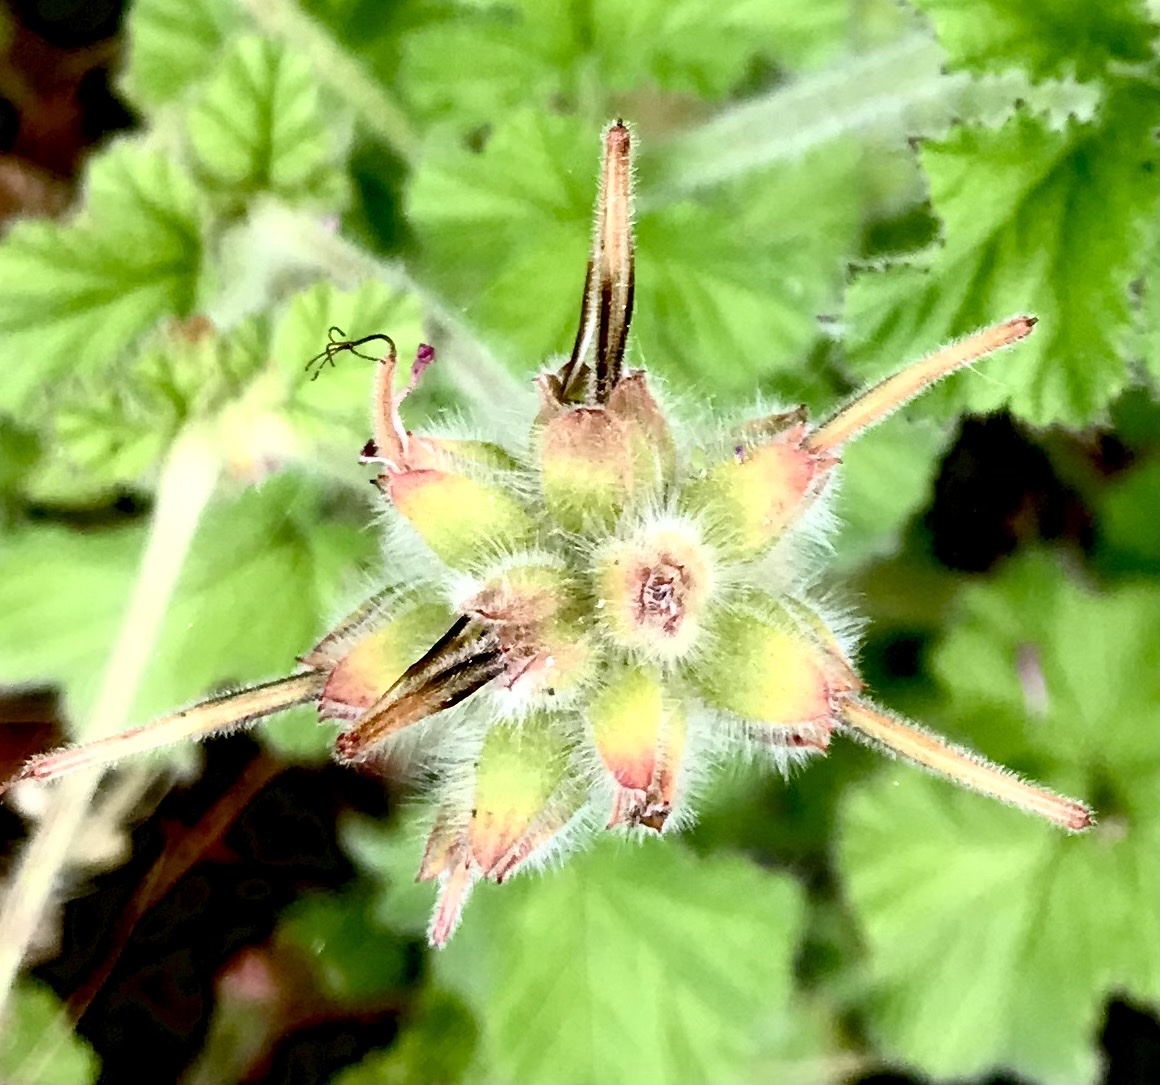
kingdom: Plantae
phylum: Tracheophyta
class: Magnoliopsida
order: Geraniales
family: Geraniaceae
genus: Pelargonium
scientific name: Pelargonium capitatum
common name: Rose scented geranium
